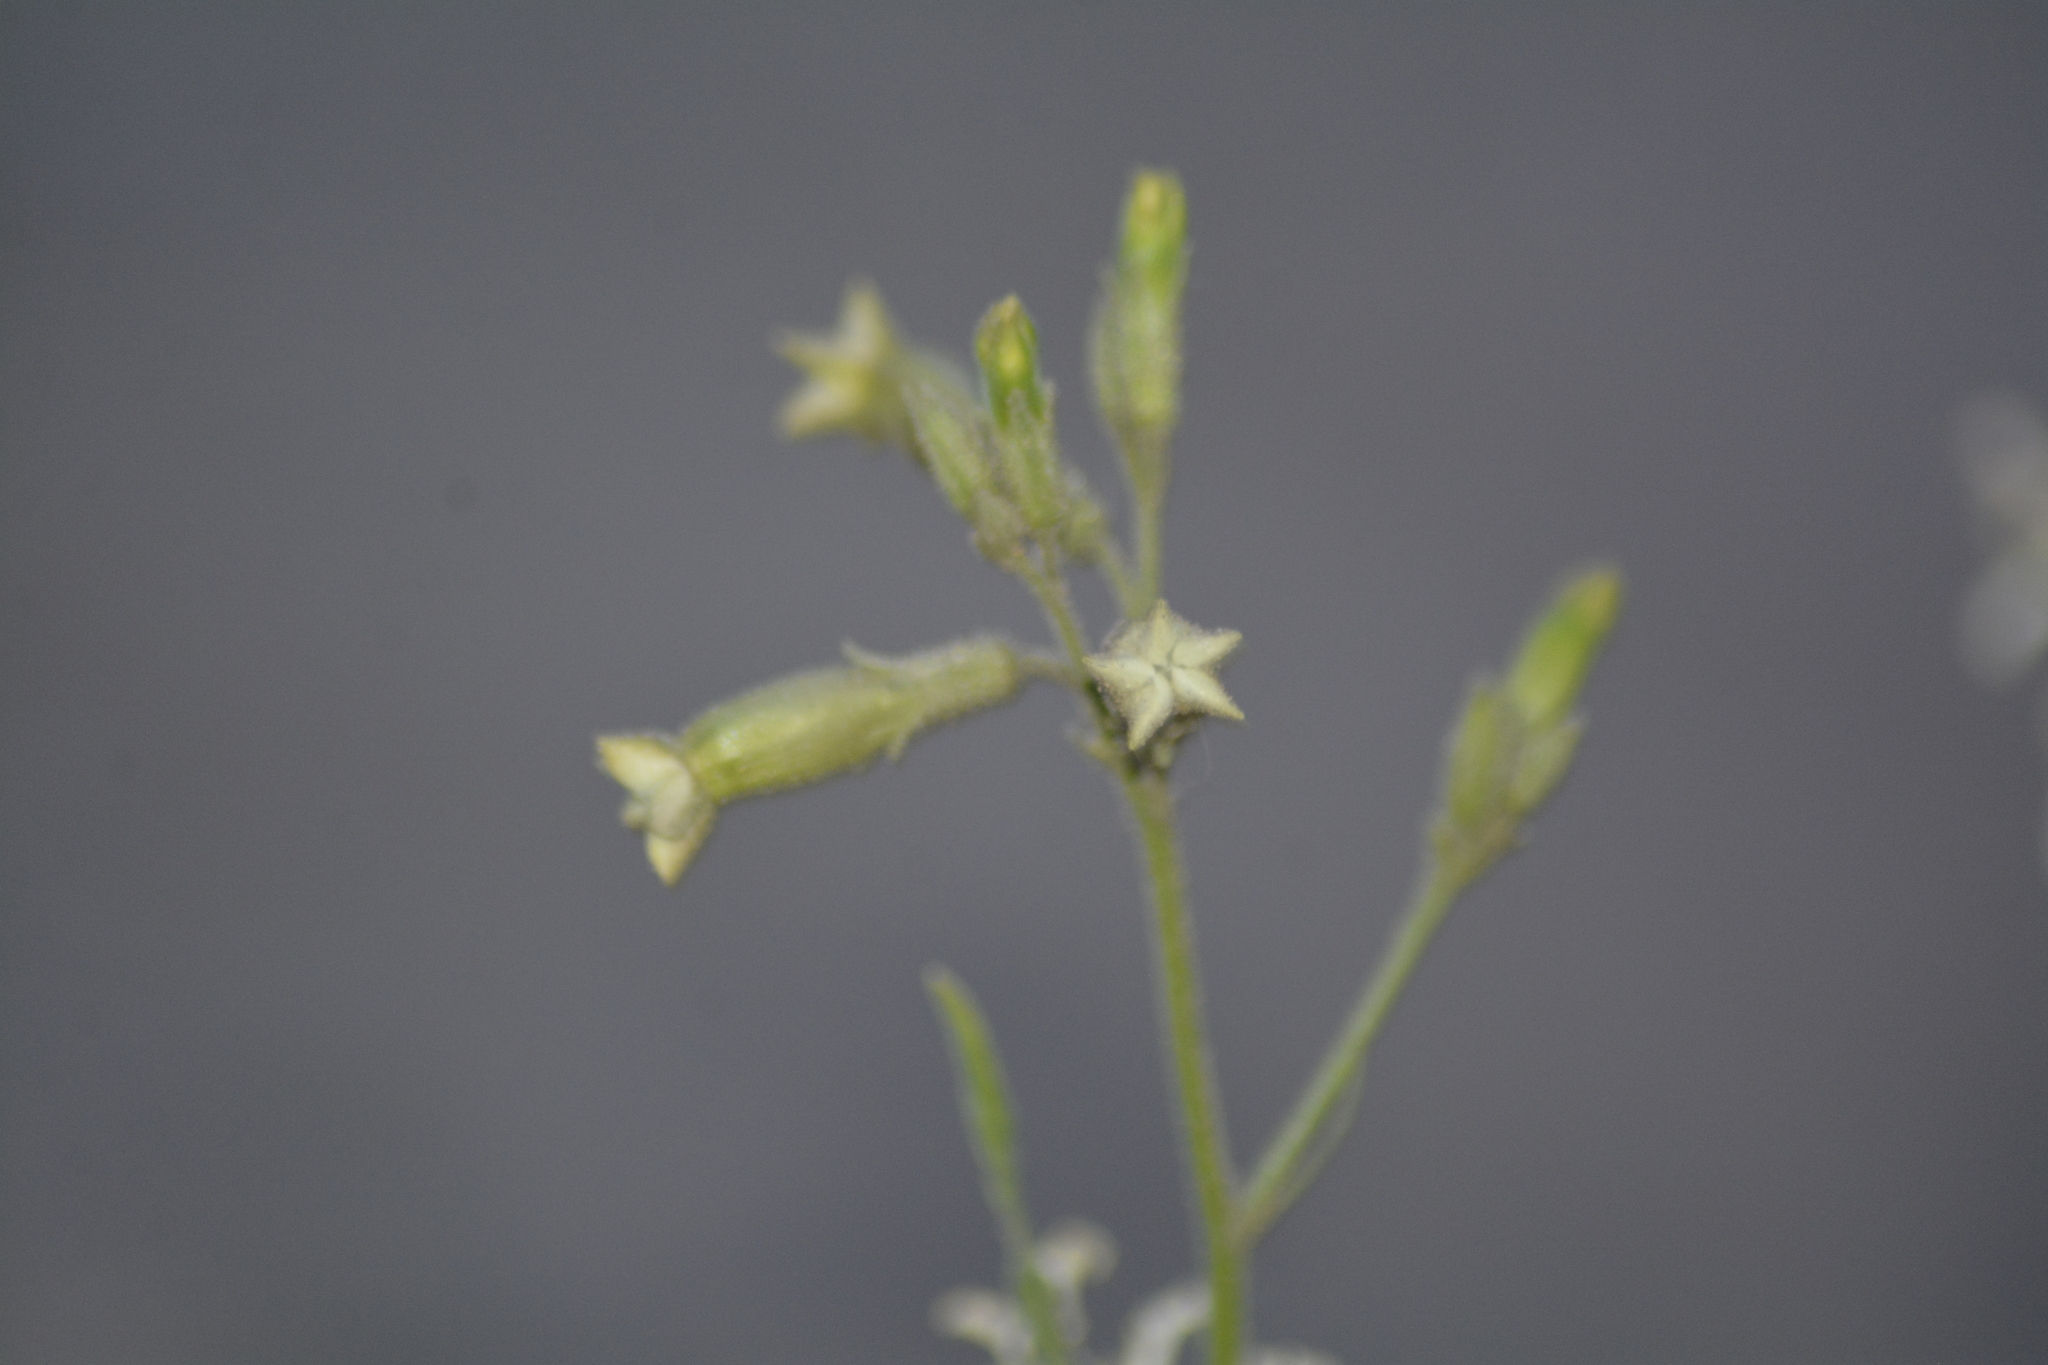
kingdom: Plantae
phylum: Tracheophyta
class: Magnoliopsida
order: Solanales
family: Solanaceae
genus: Nicotiana
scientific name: Nicotiana petunioides
